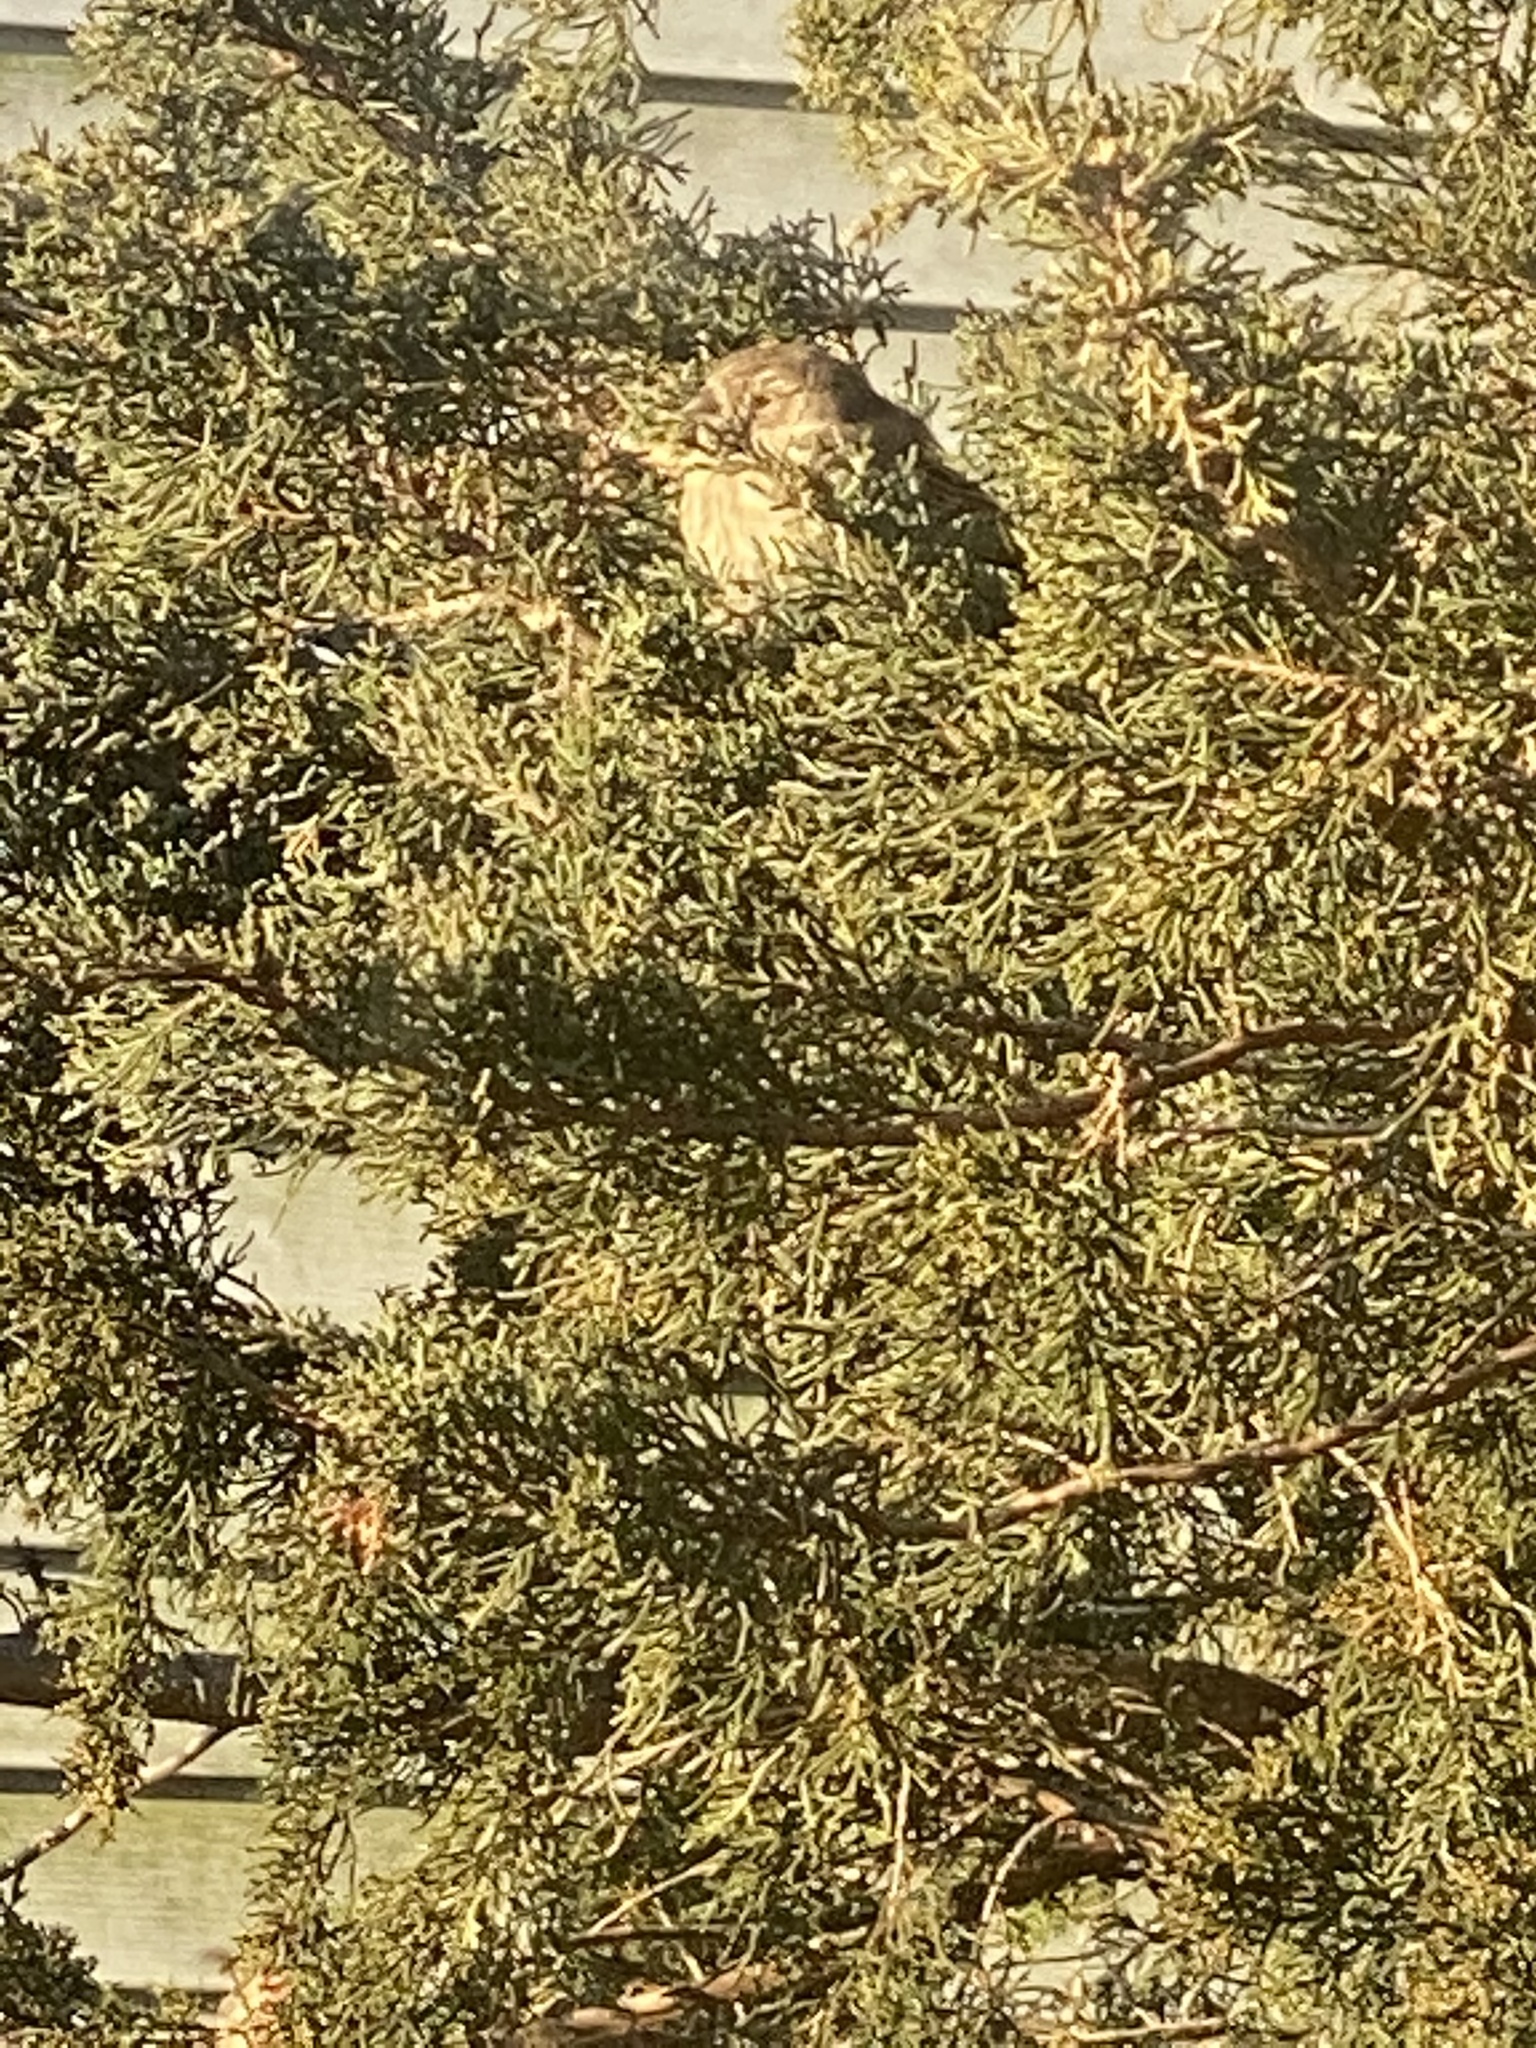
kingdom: Animalia
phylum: Chordata
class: Aves
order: Passeriformes
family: Fringillidae
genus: Haemorhous
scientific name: Haemorhous mexicanus
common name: House finch
